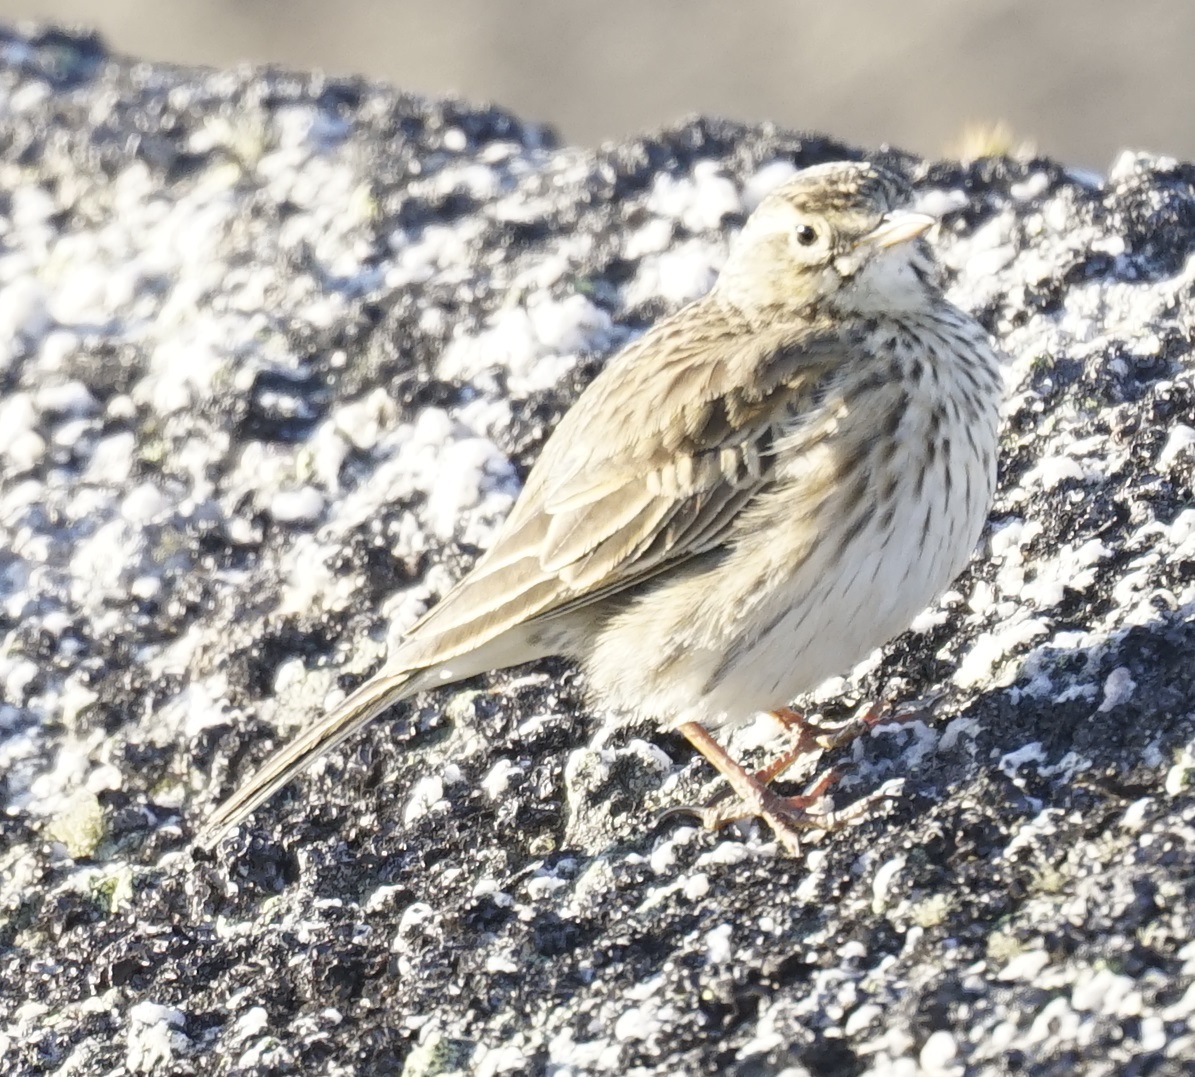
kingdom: Animalia
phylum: Chordata
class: Aves
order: Passeriformes
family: Motacillidae
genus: Anthus
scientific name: Anthus australis
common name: Australian pipit
